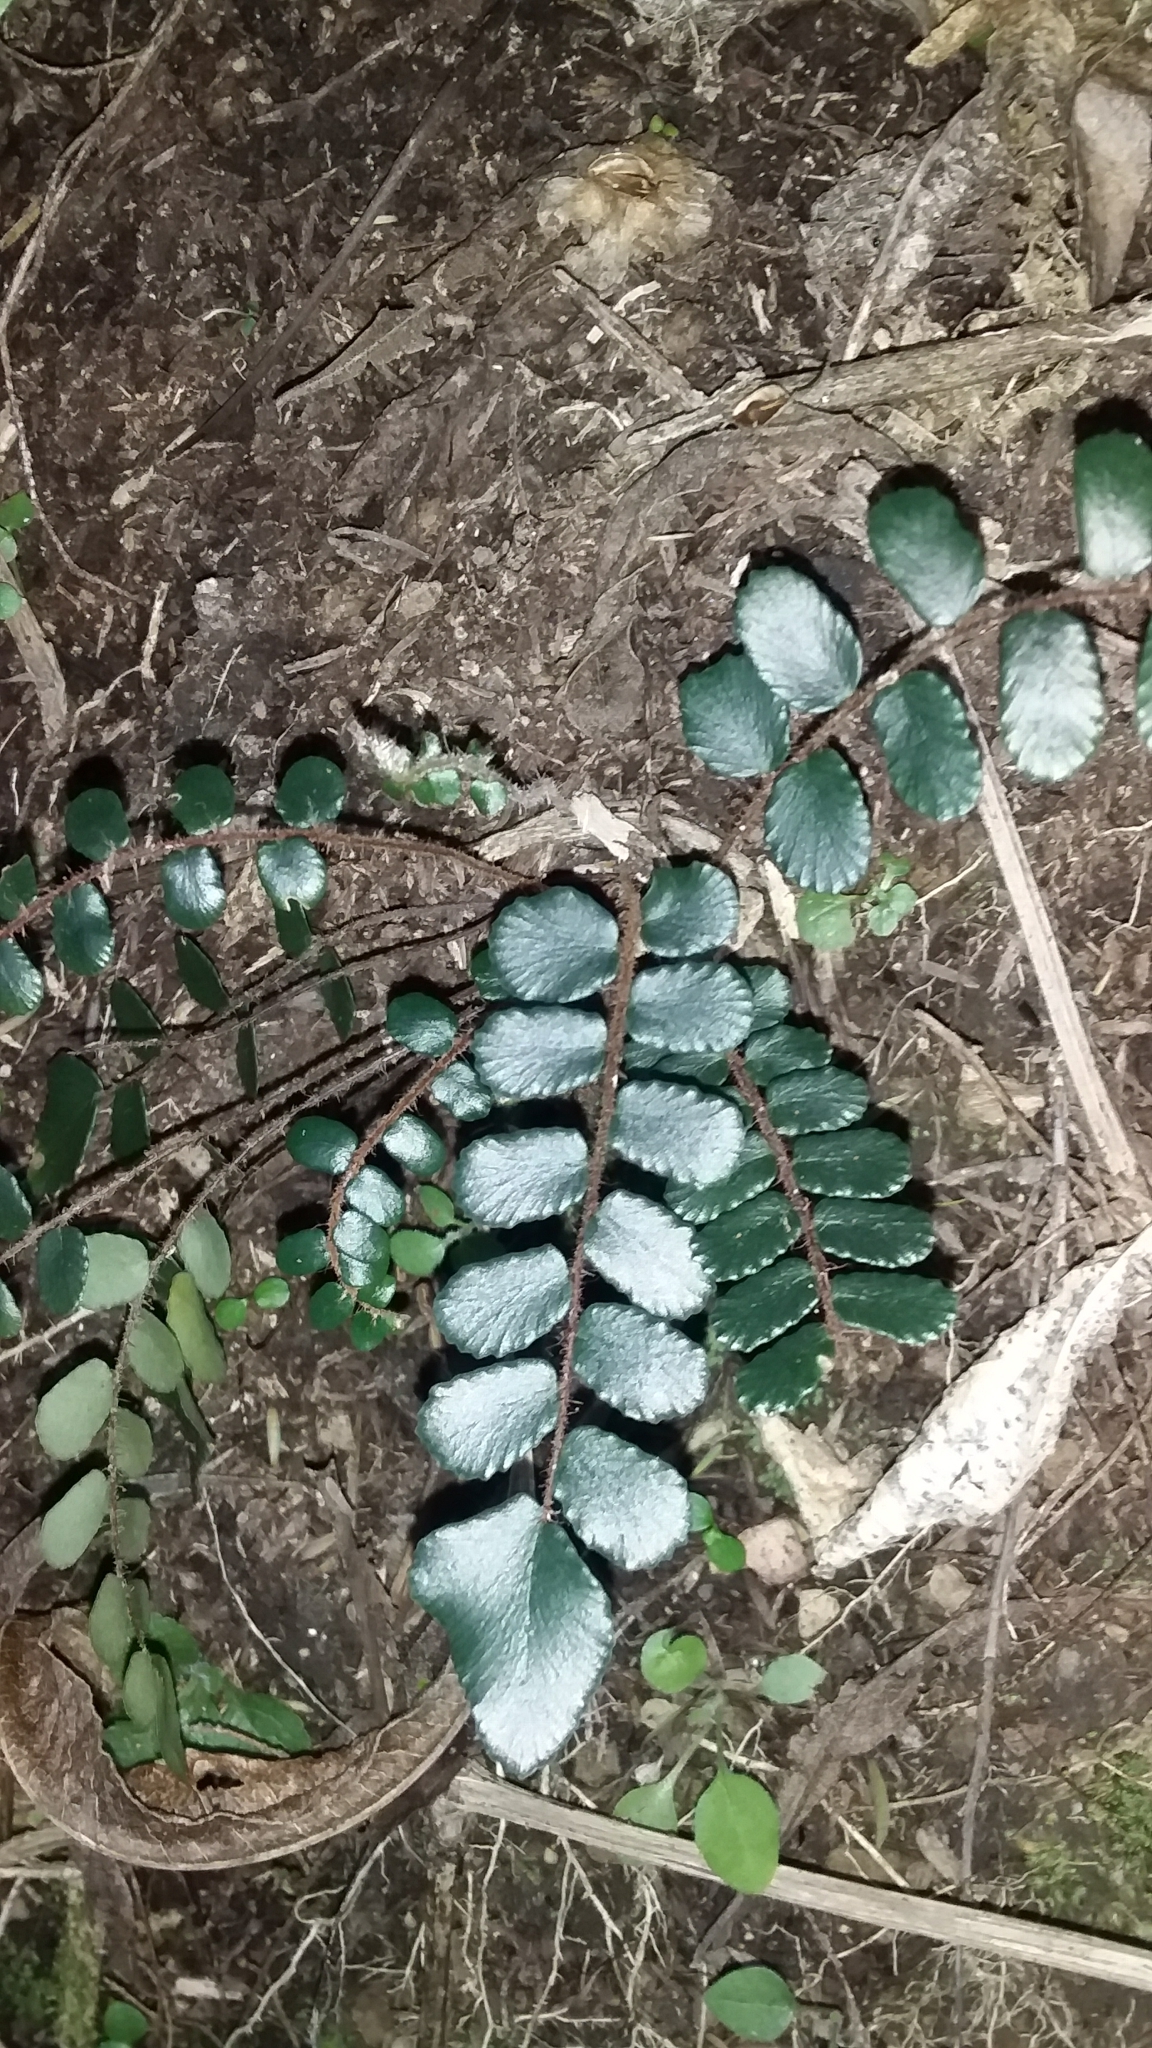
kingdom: Plantae
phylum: Tracheophyta
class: Polypodiopsida
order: Polypodiales
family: Pteridaceae
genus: Pellaea
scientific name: Pellaea rotundifolia
